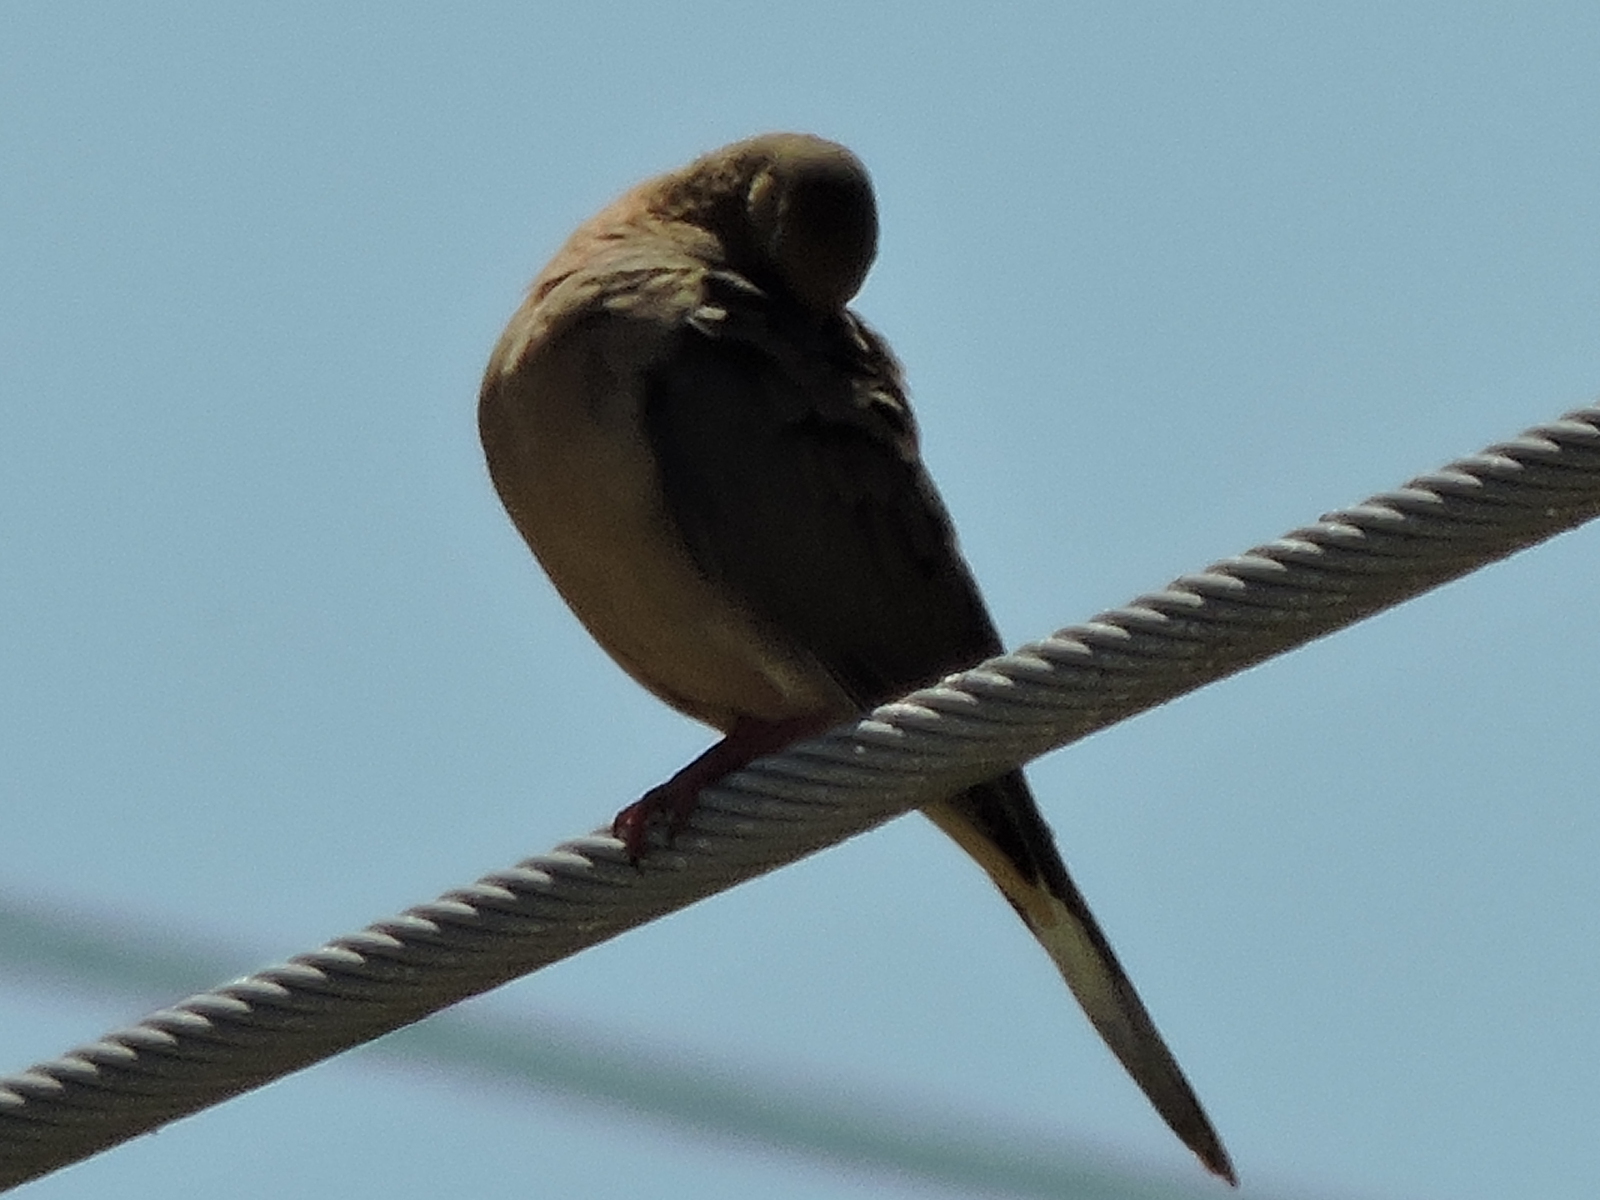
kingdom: Animalia
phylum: Chordata
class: Aves
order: Columbiformes
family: Columbidae
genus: Zenaida
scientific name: Zenaida macroura
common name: Mourning dove
